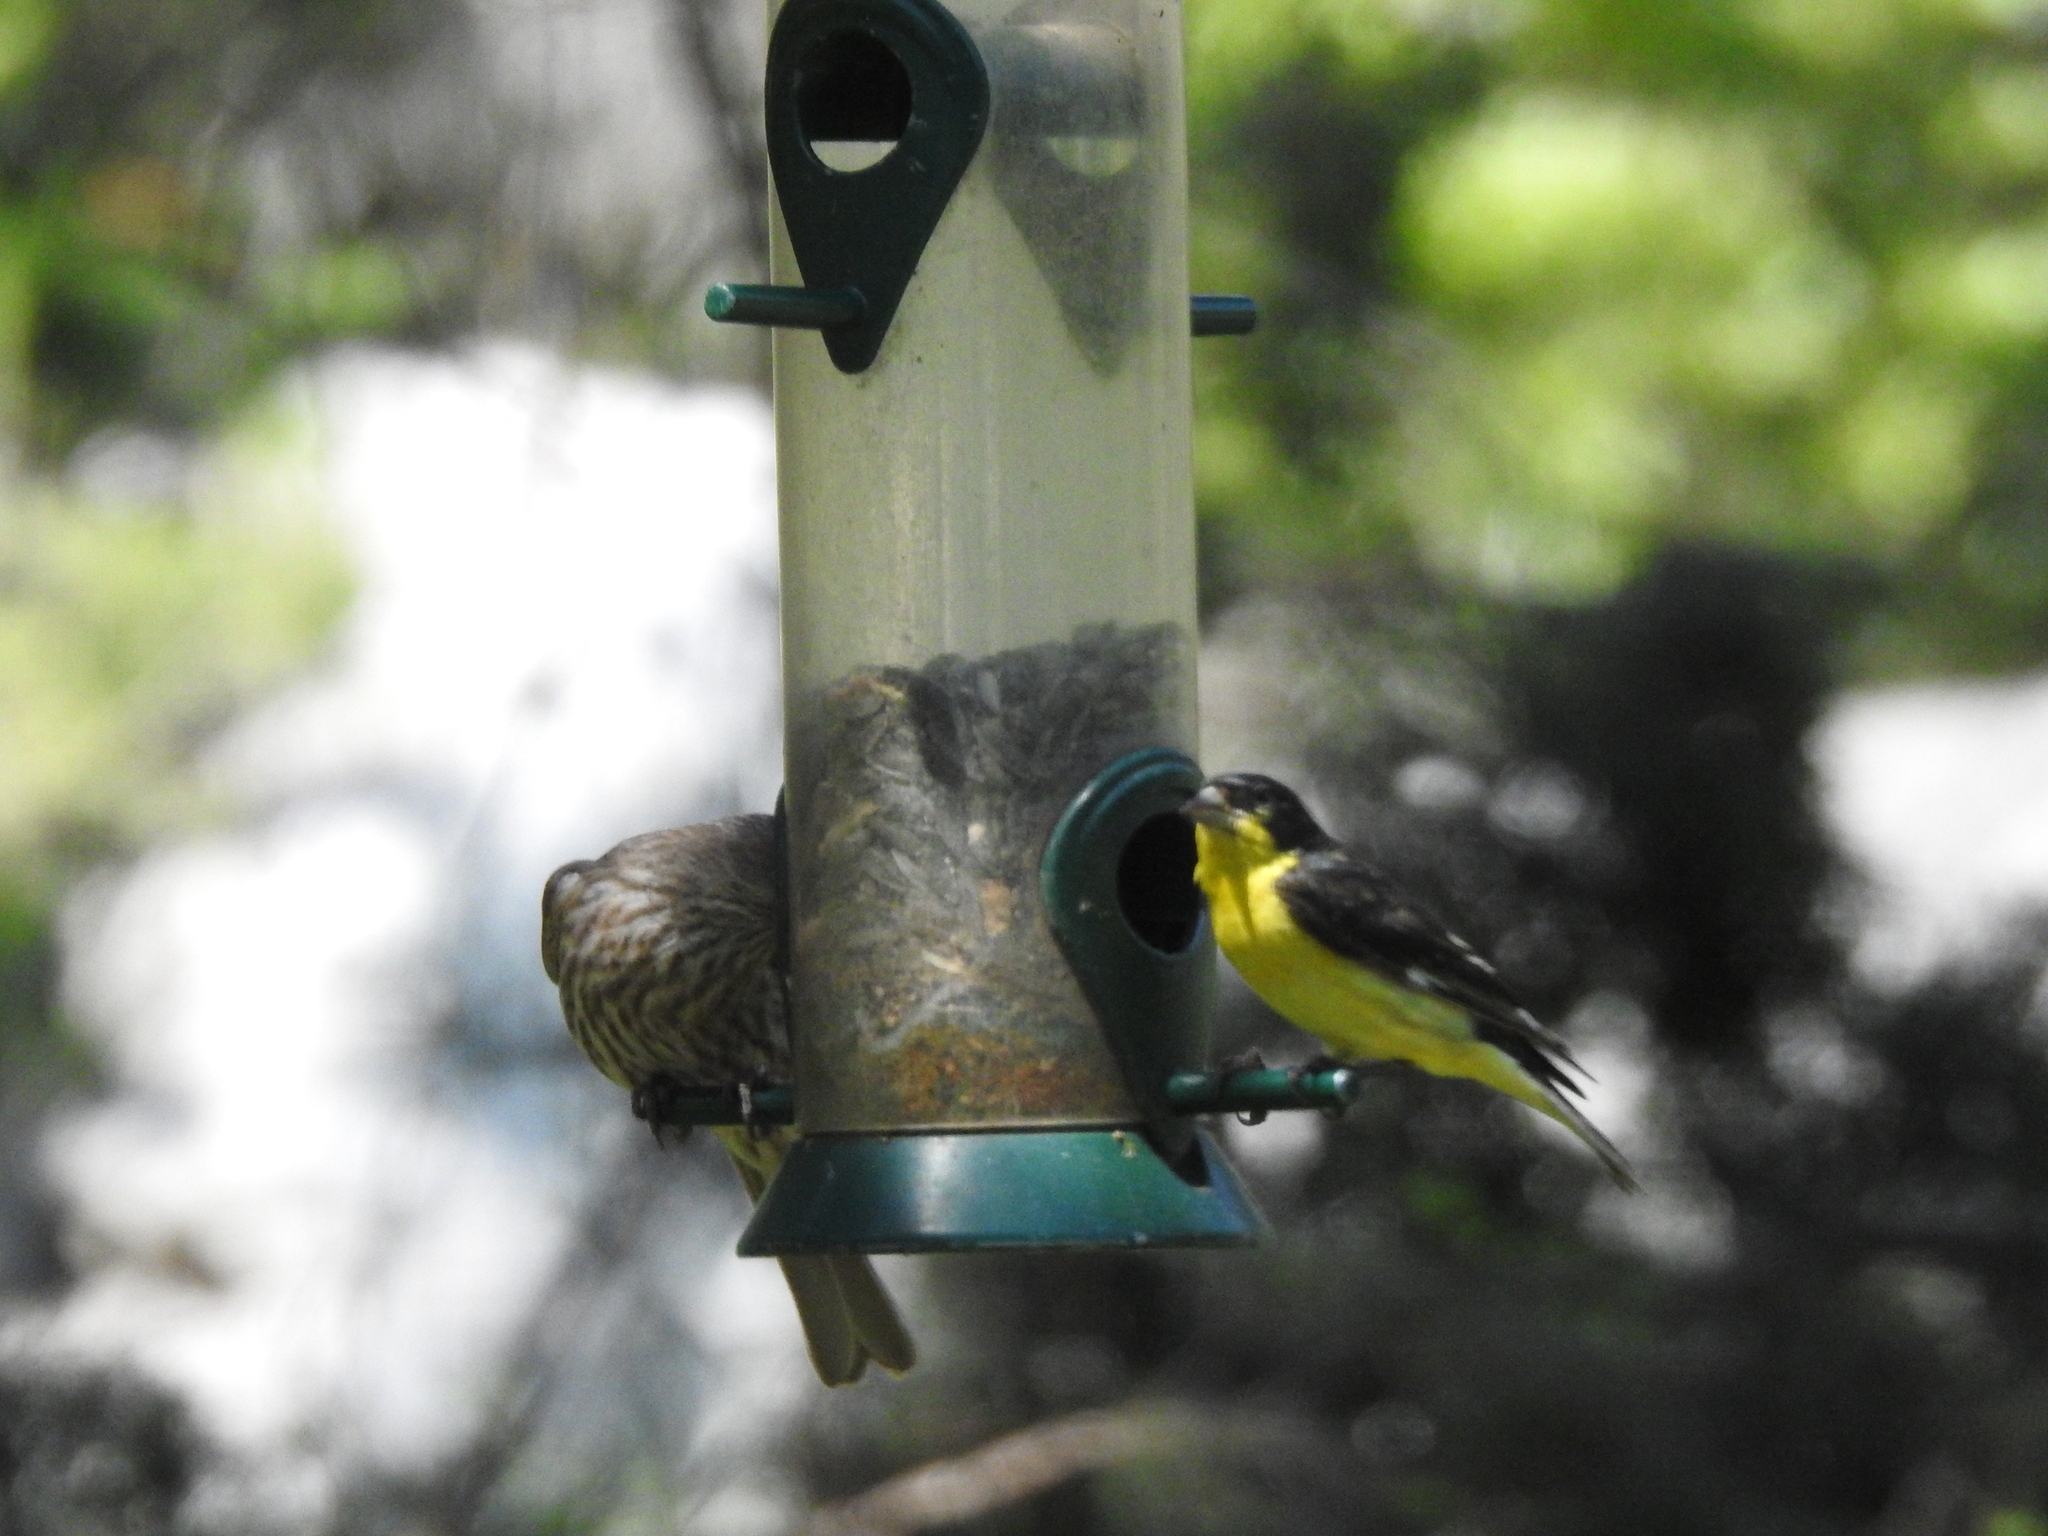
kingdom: Animalia
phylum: Chordata
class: Aves
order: Passeriformes
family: Fringillidae
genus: Spinus
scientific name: Spinus psaltria
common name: Lesser goldfinch
